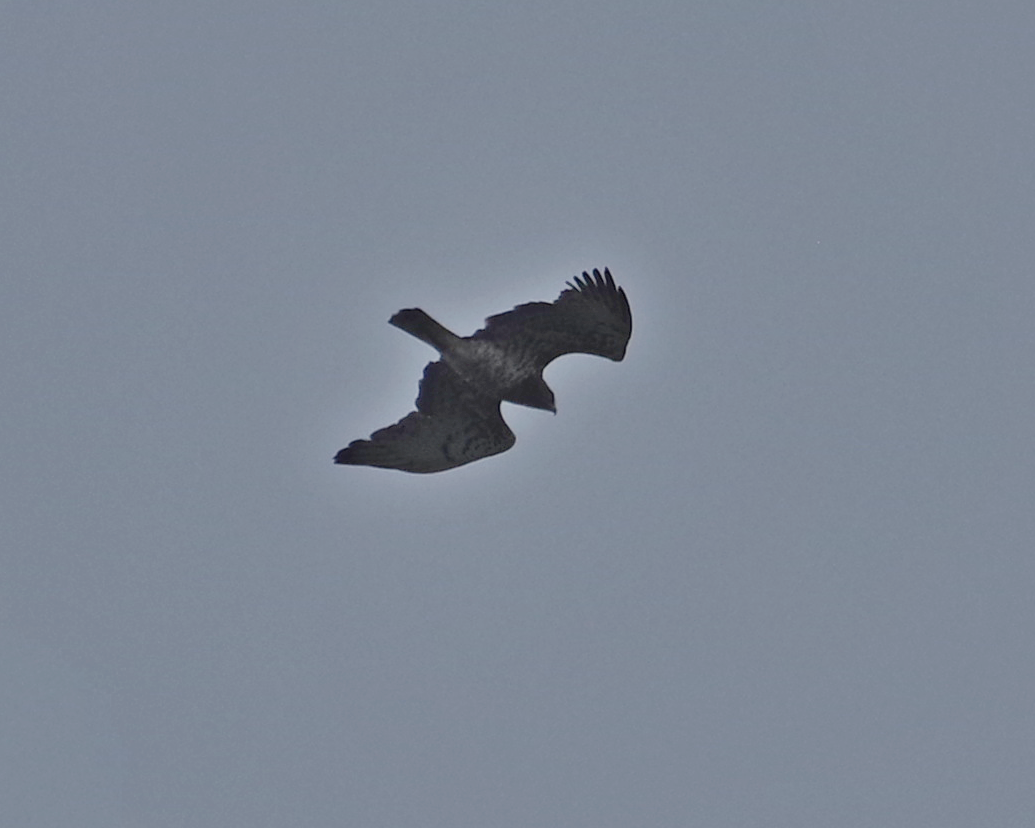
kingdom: Animalia
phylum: Chordata
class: Aves
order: Accipitriformes
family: Accipitridae
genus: Circaetus
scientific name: Circaetus gallicus
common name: Short-toed snake eagle
